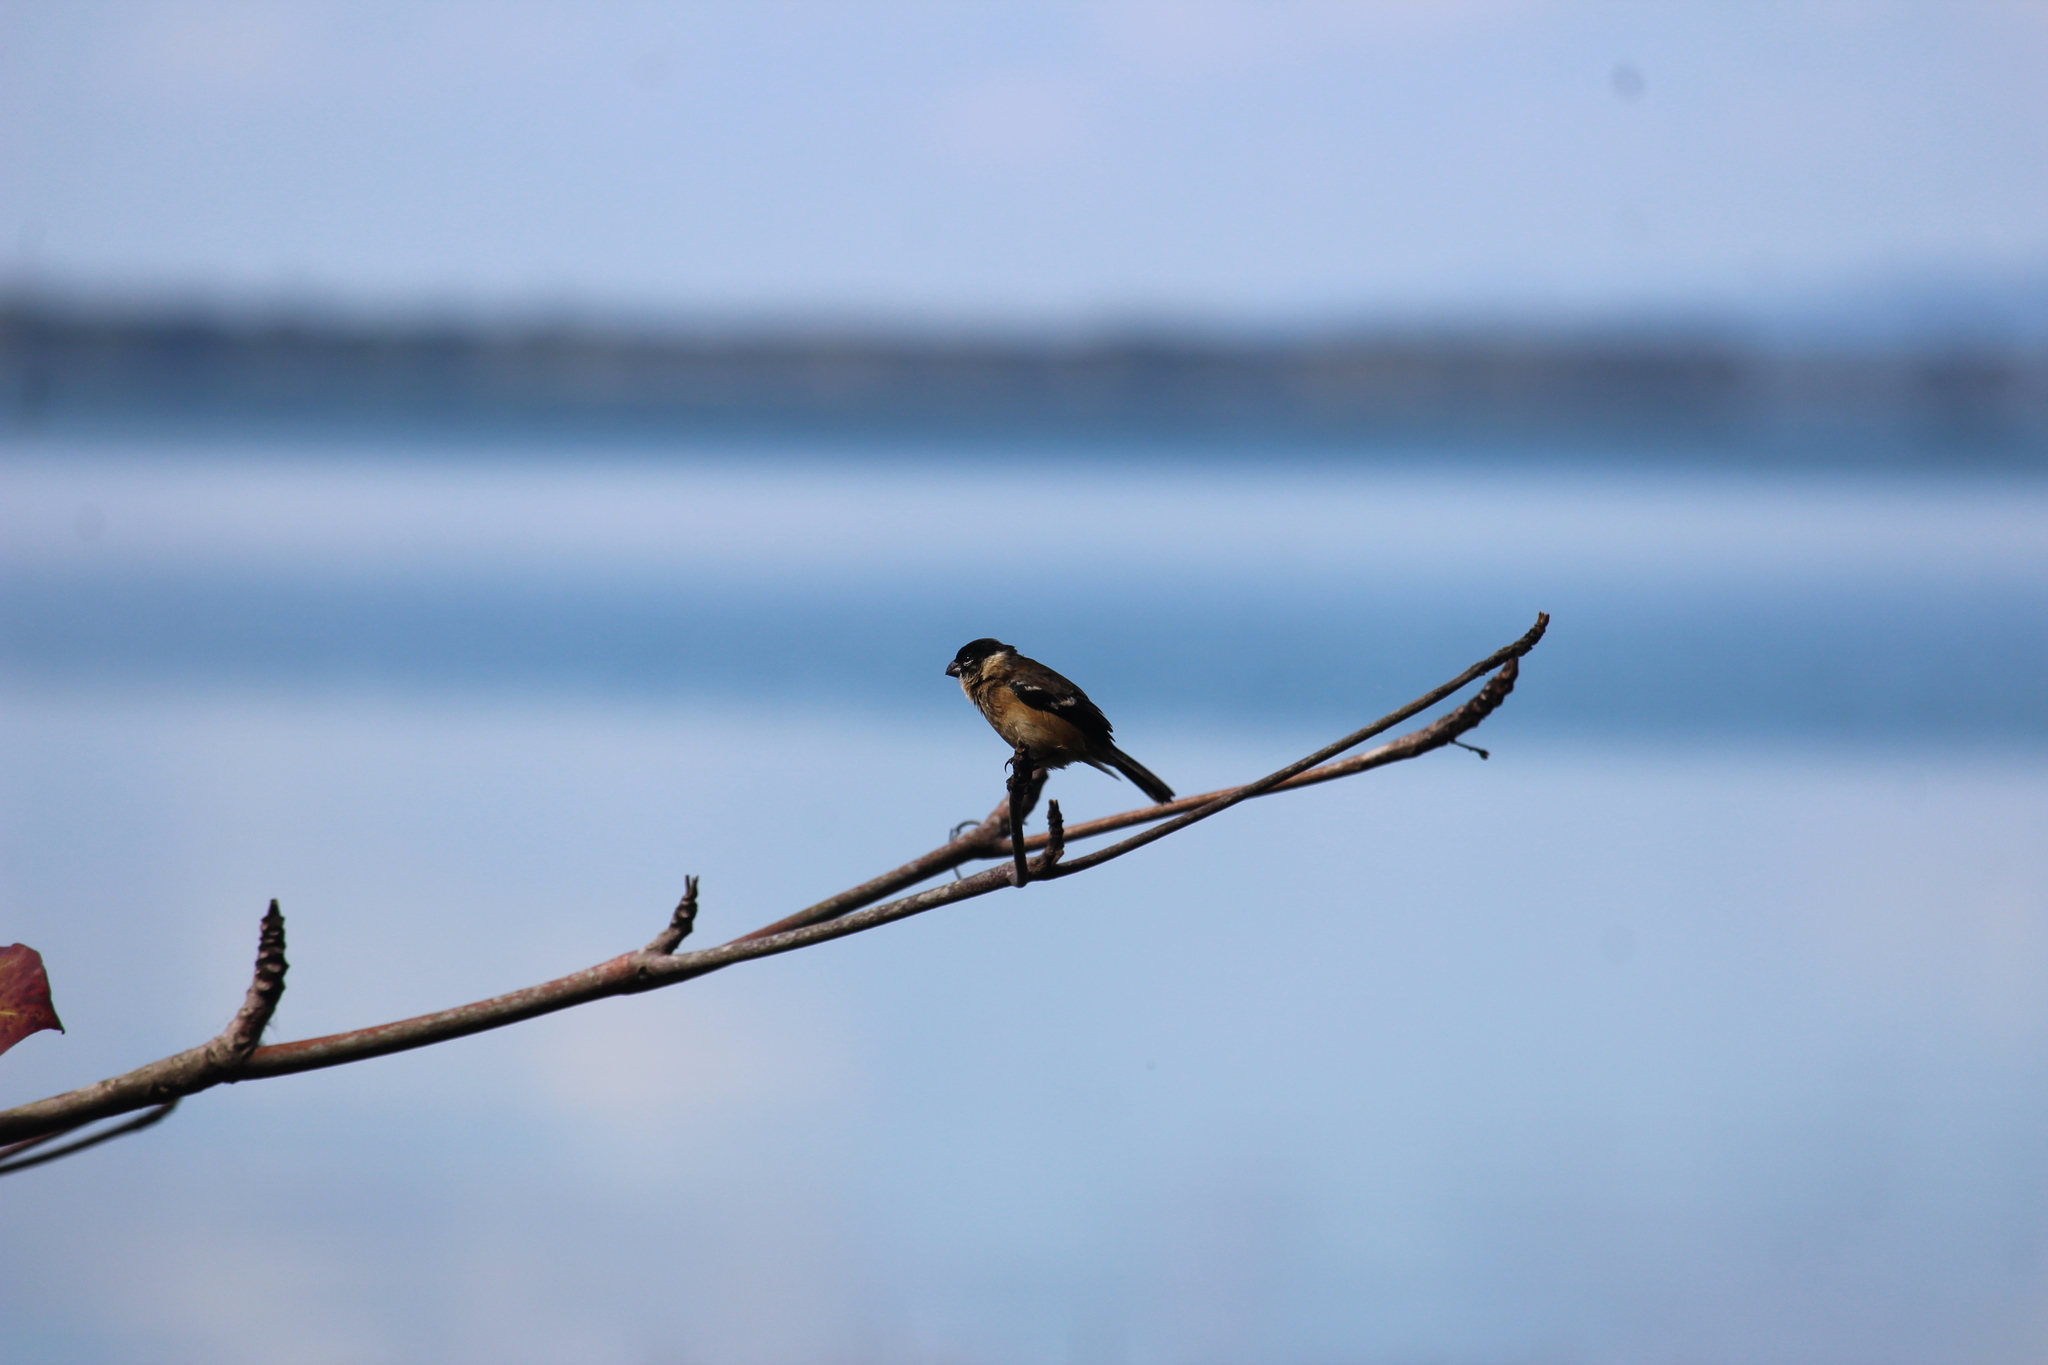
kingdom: Animalia
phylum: Chordata
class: Aves
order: Passeriformes
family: Thraupidae
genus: Sporophila
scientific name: Sporophila morelleti
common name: Morelet's seedeater
